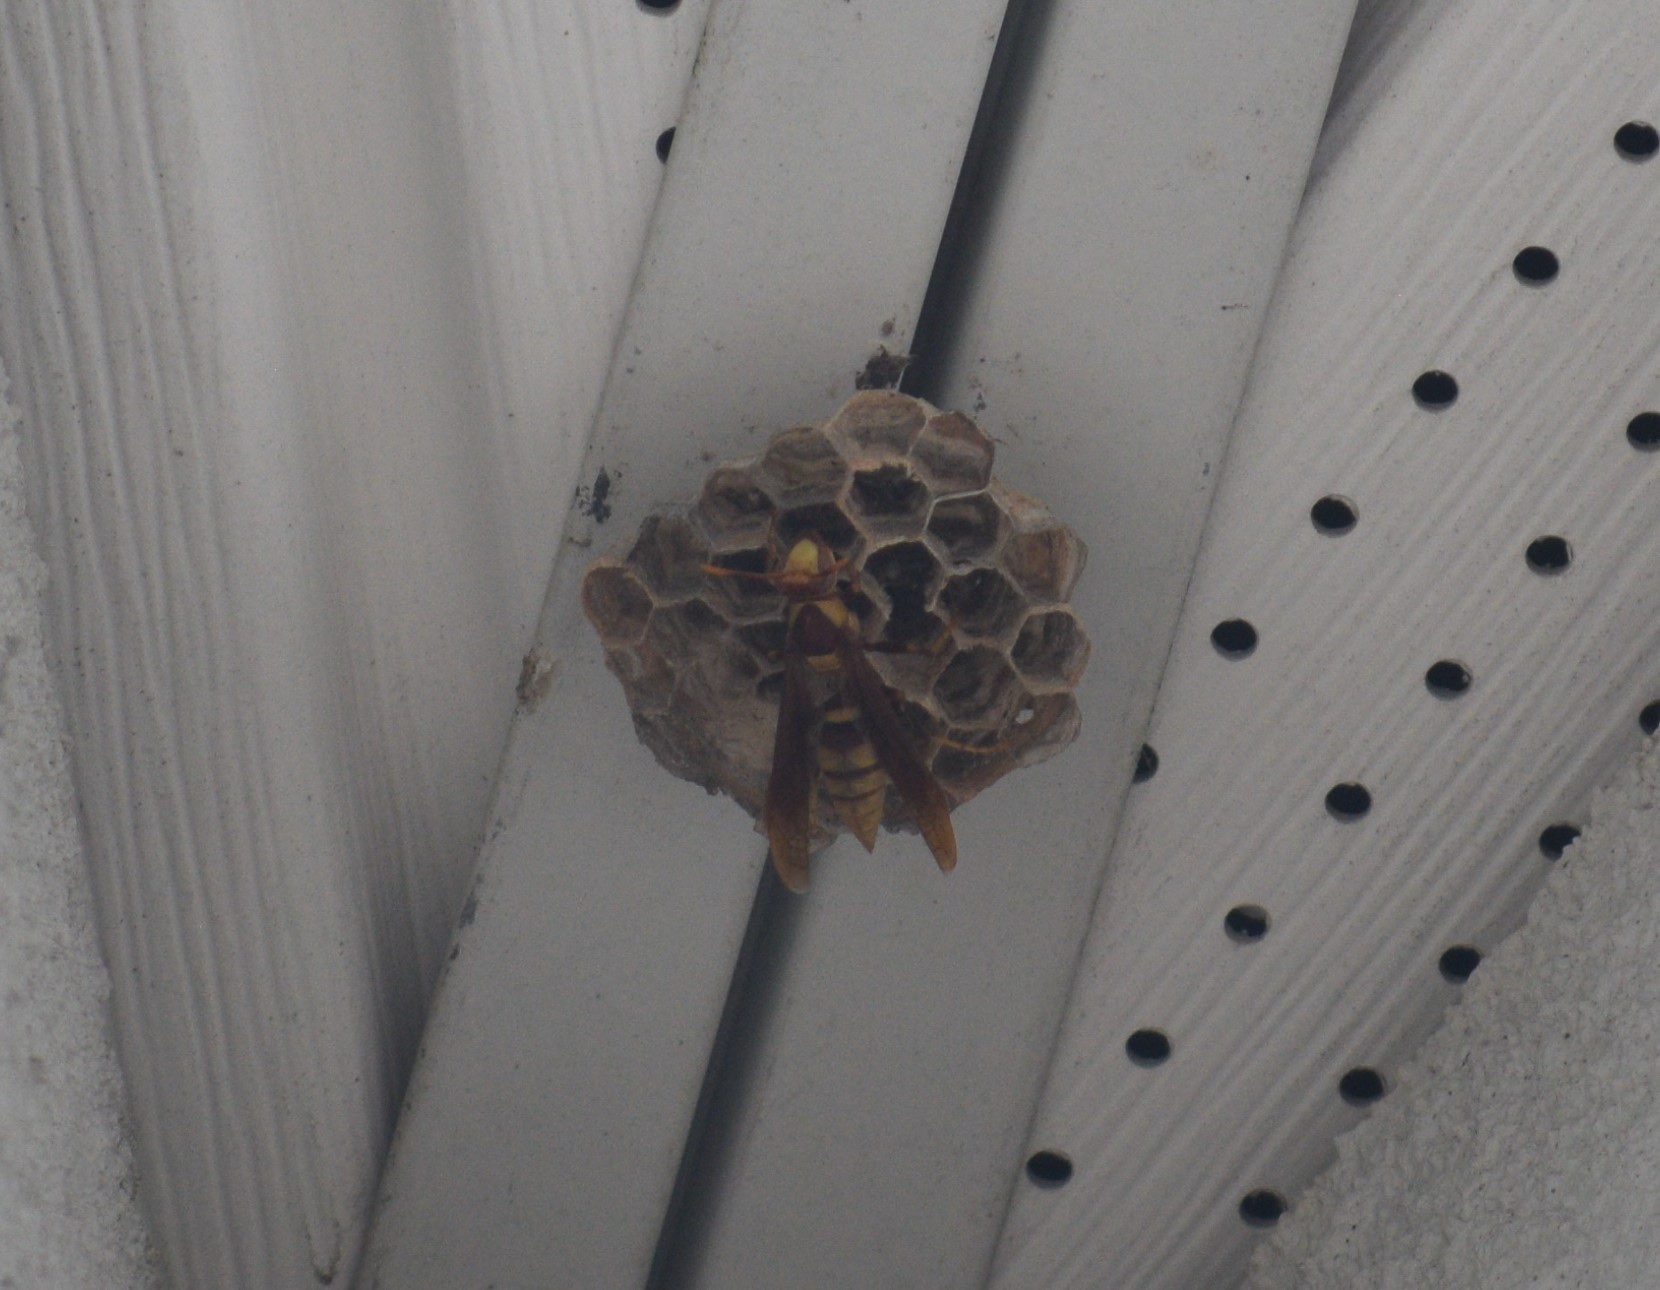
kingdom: Animalia
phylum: Arthropoda
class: Insecta
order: Hymenoptera
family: Eumenidae
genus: Polistes
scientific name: Polistes major
